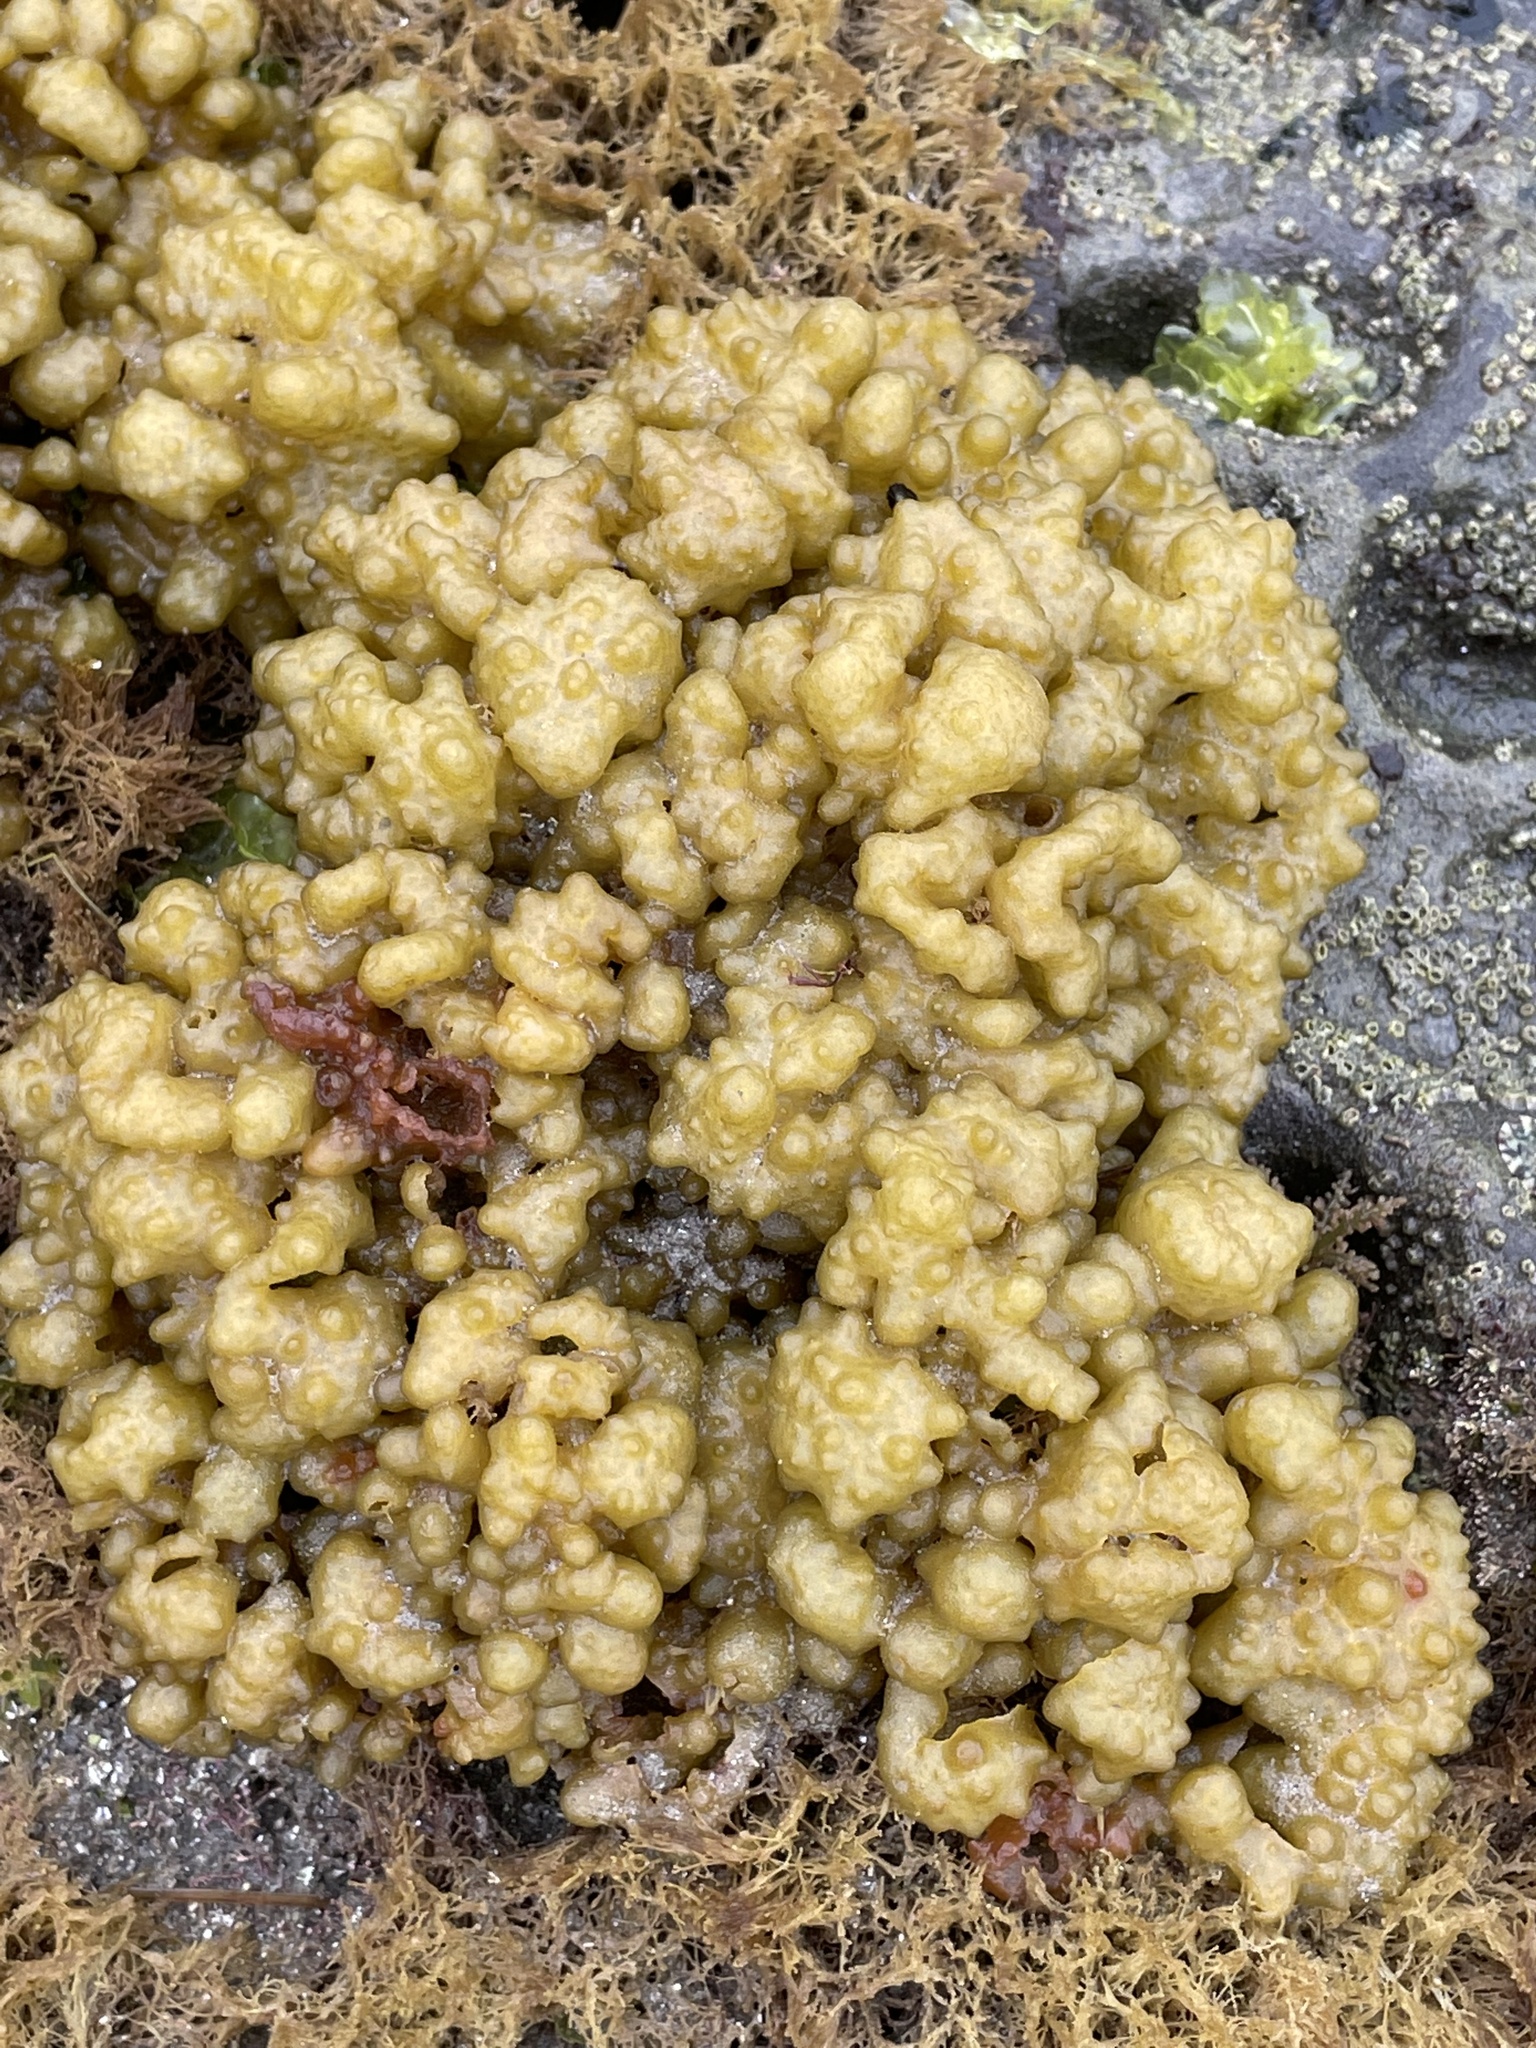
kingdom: Chromista
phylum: Ochrophyta
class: Phaeophyceae
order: Scytosiphonales
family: Scytosiphonaceae
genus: Colpomenia
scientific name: Colpomenia
